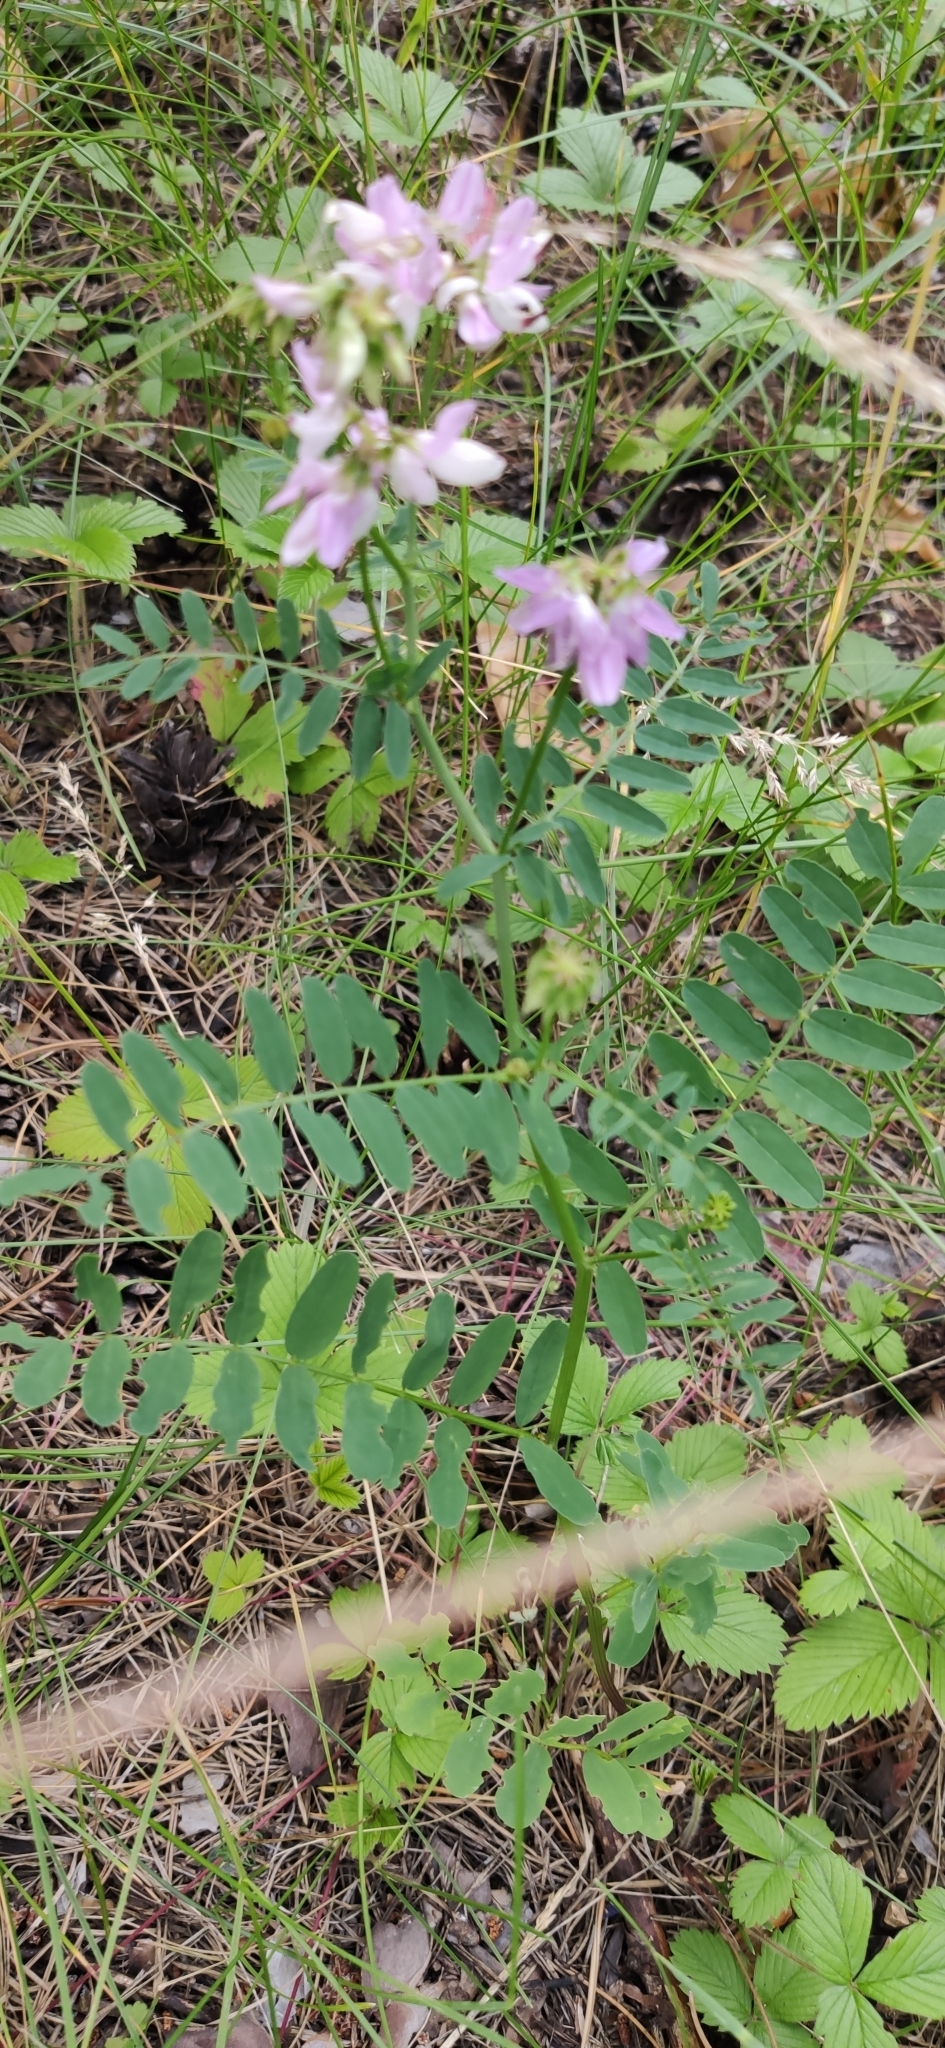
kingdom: Plantae
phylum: Tracheophyta
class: Magnoliopsida
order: Fabales
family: Fabaceae
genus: Coronilla
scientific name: Coronilla varia
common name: Crownvetch
